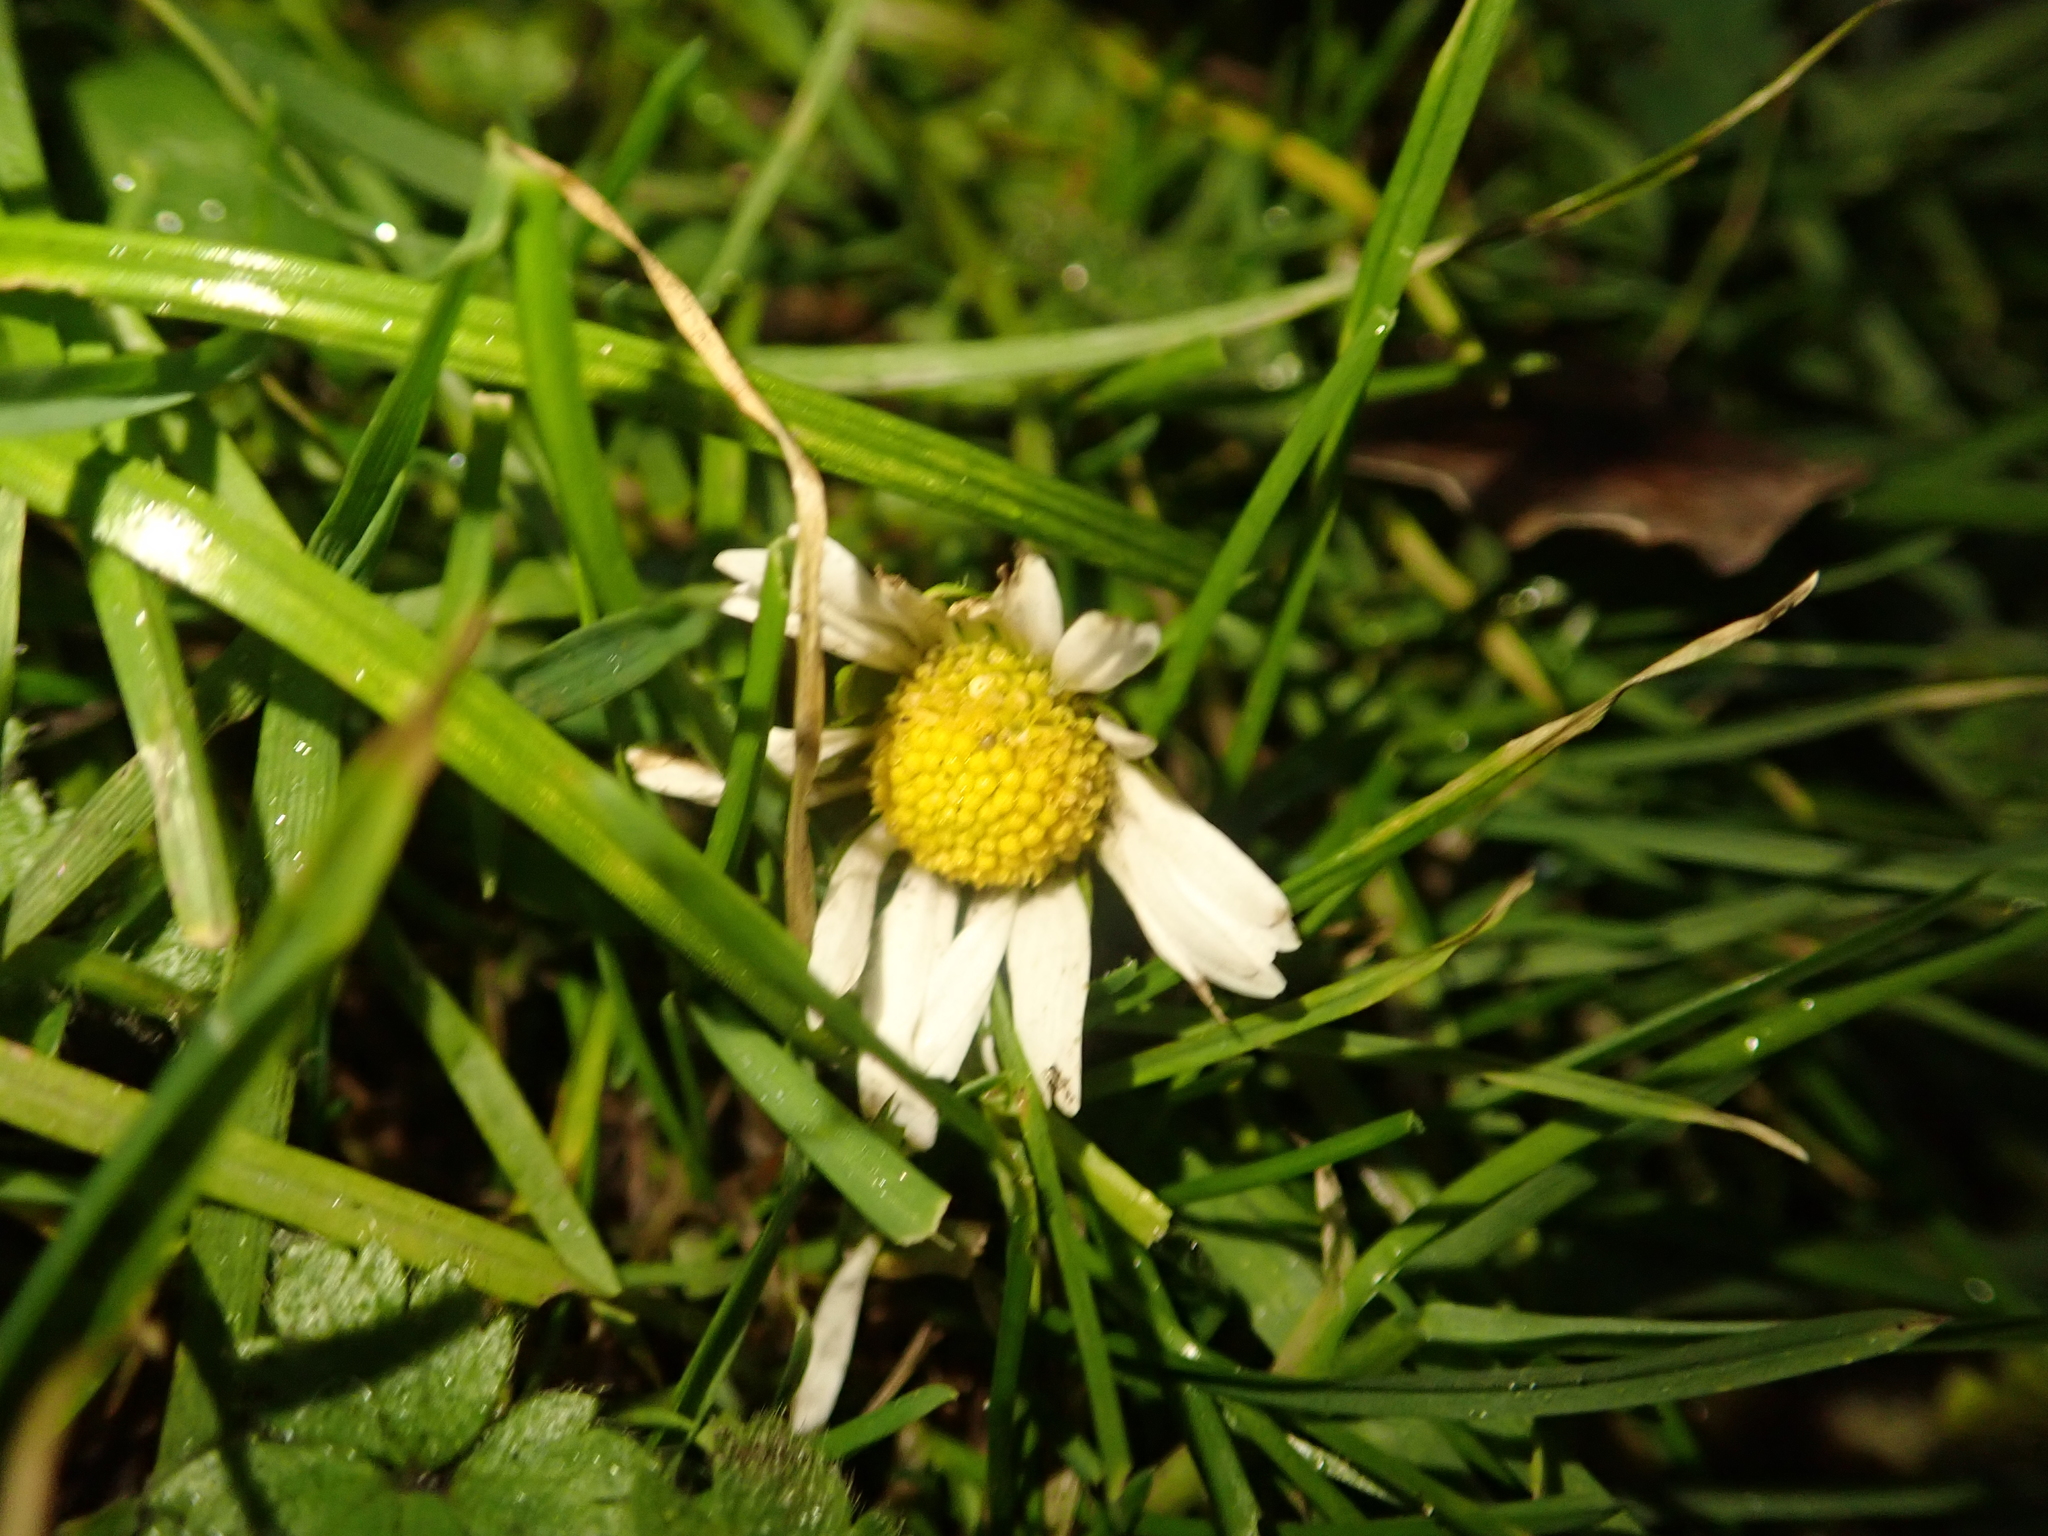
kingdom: Plantae
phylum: Tracheophyta
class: Magnoliopsida
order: Asterales
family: Asteraceae
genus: Bellis
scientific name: Bellis perennis
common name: Lawndaisy
